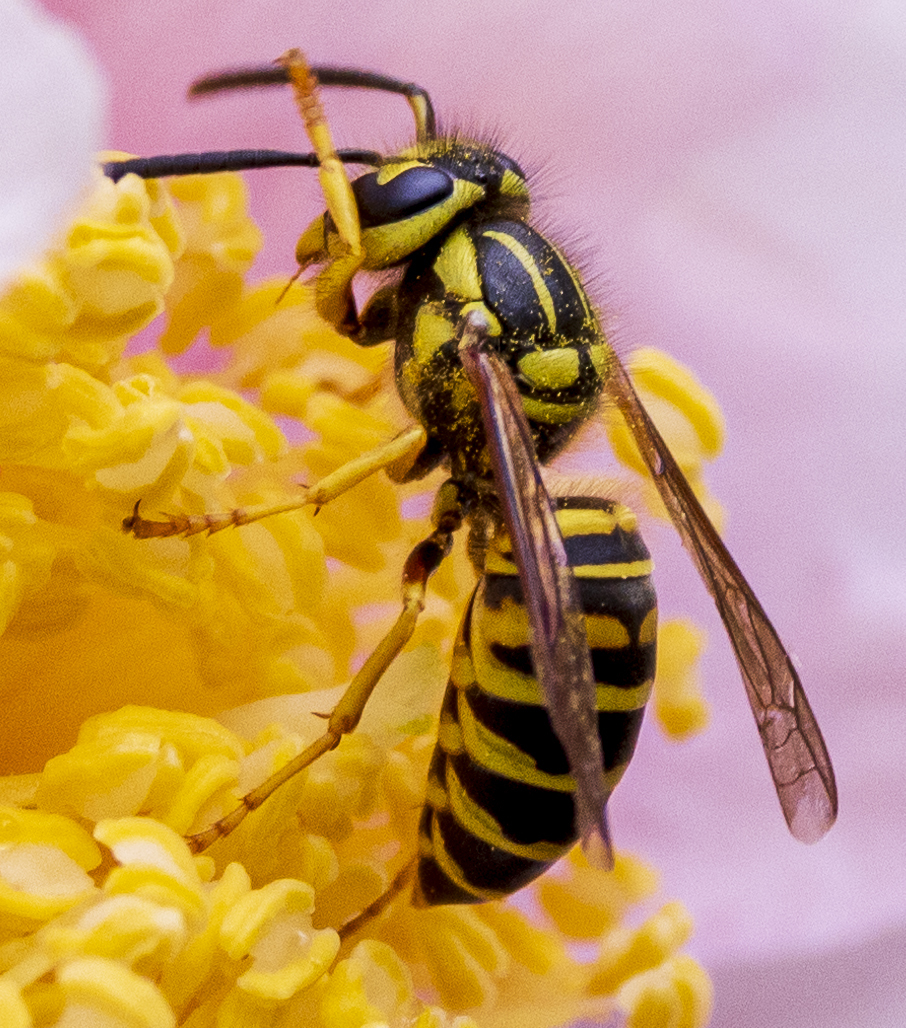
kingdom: Animalia
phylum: Arthropoda
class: Insecta
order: Hymenoptera
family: Vespidae
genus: Vespula
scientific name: Vespula squamosa
